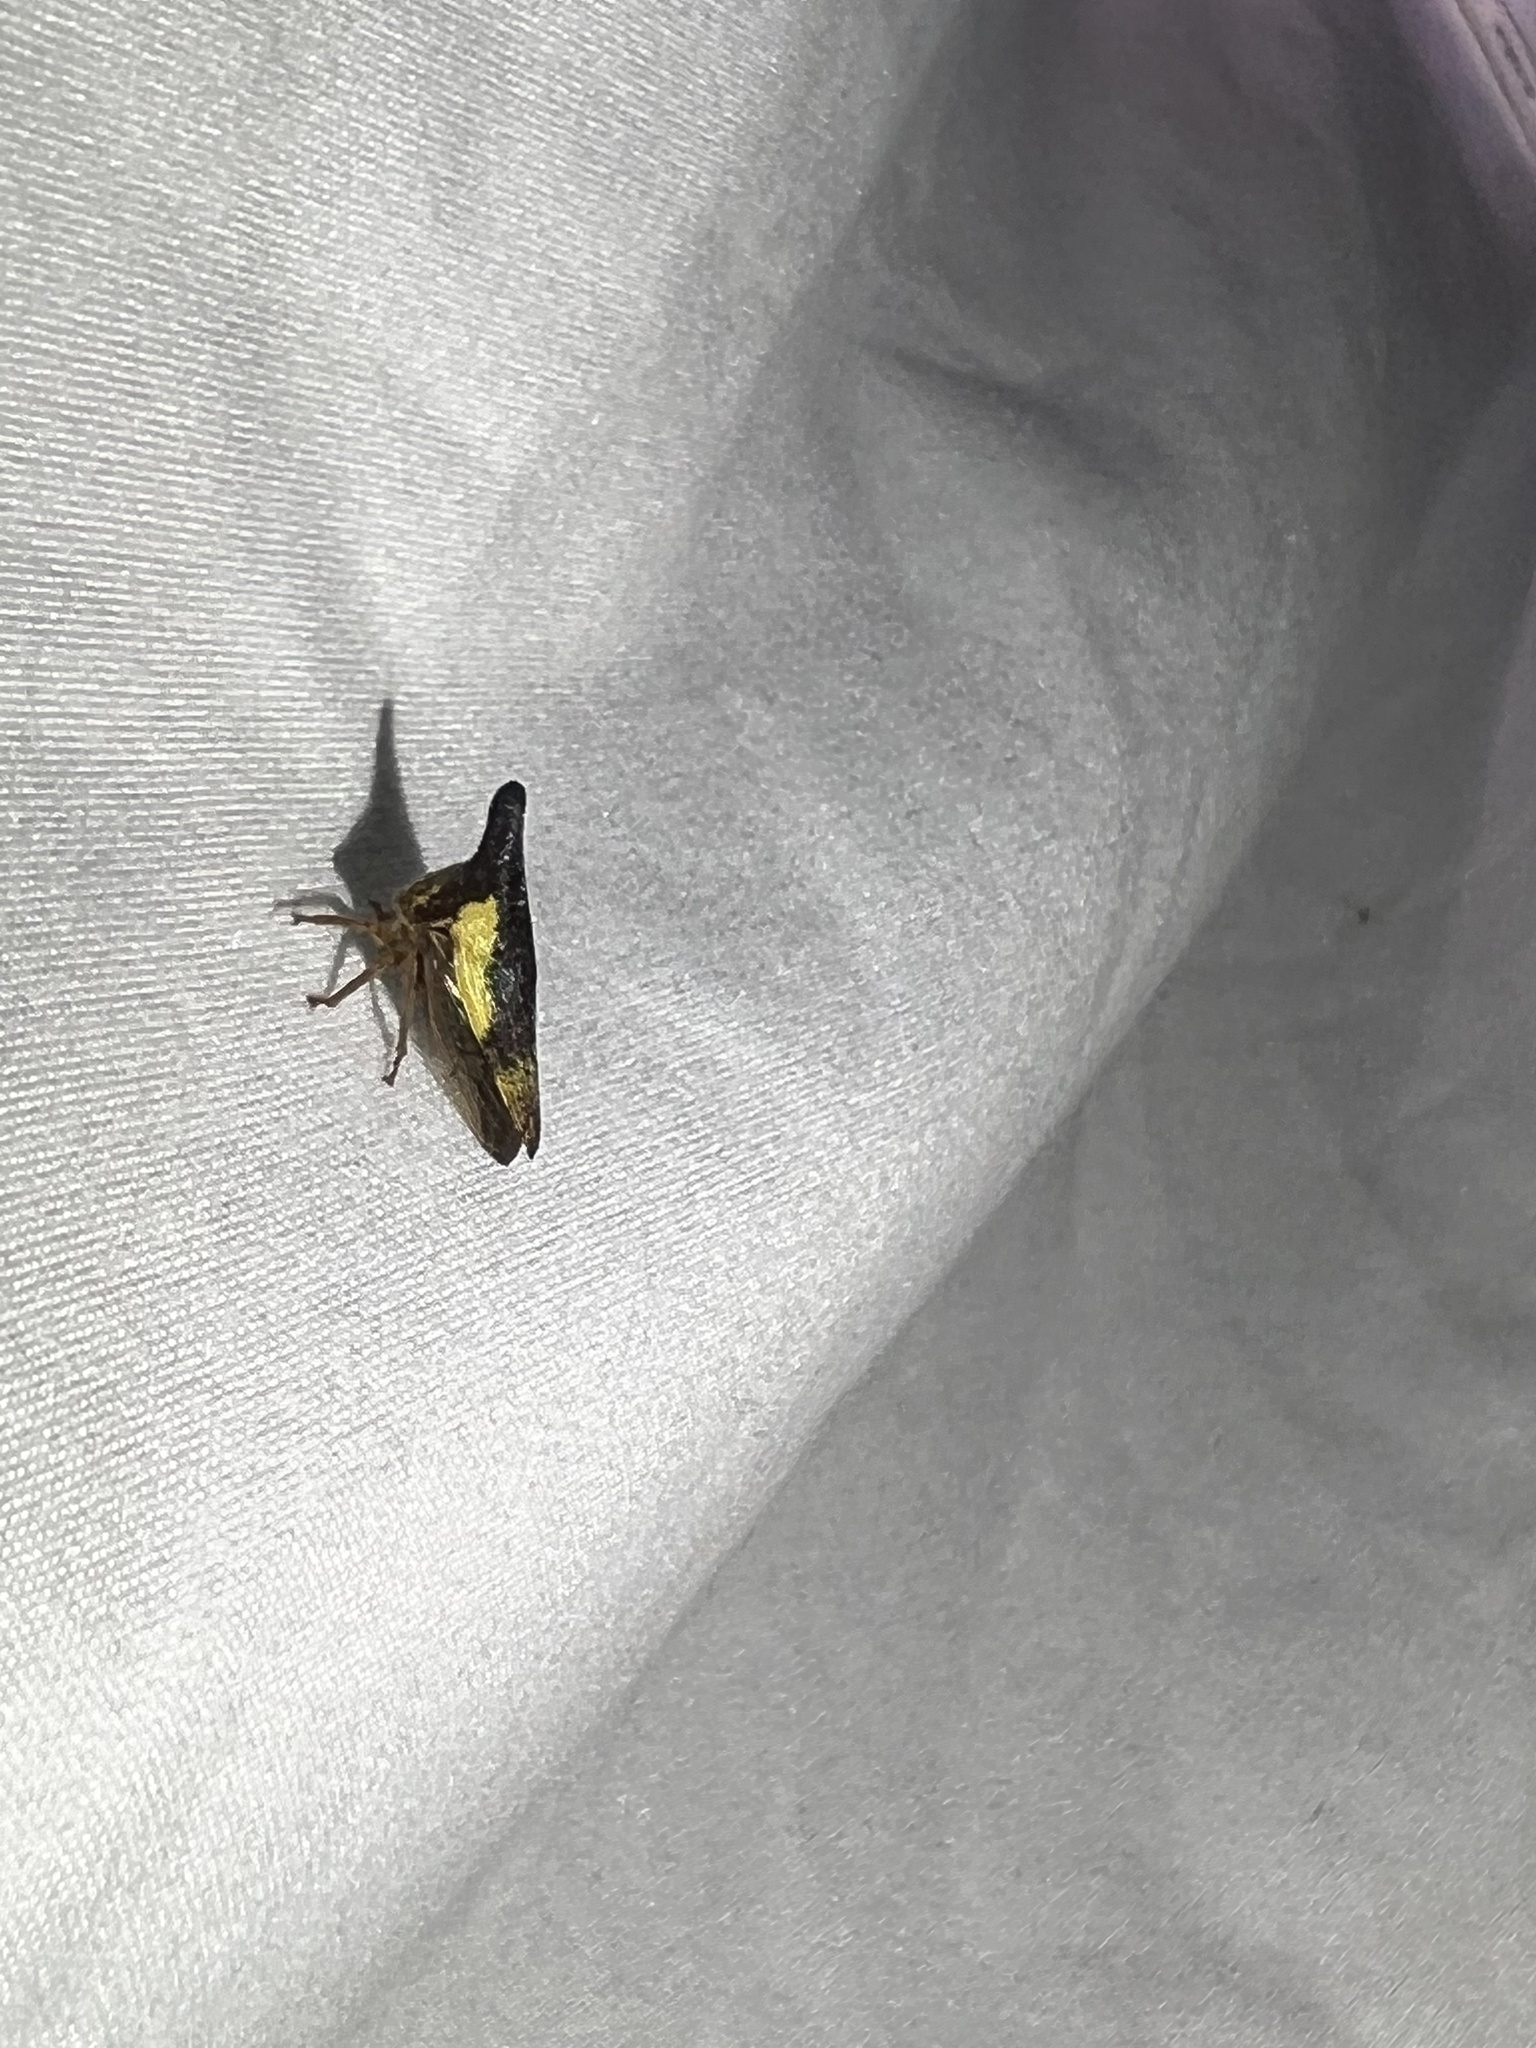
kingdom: Animalia
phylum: Arthropoda
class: Insecta
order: Hemiptera
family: Membracidae
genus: Thelia
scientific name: Thelia bimaculata
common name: Locust treehopper
